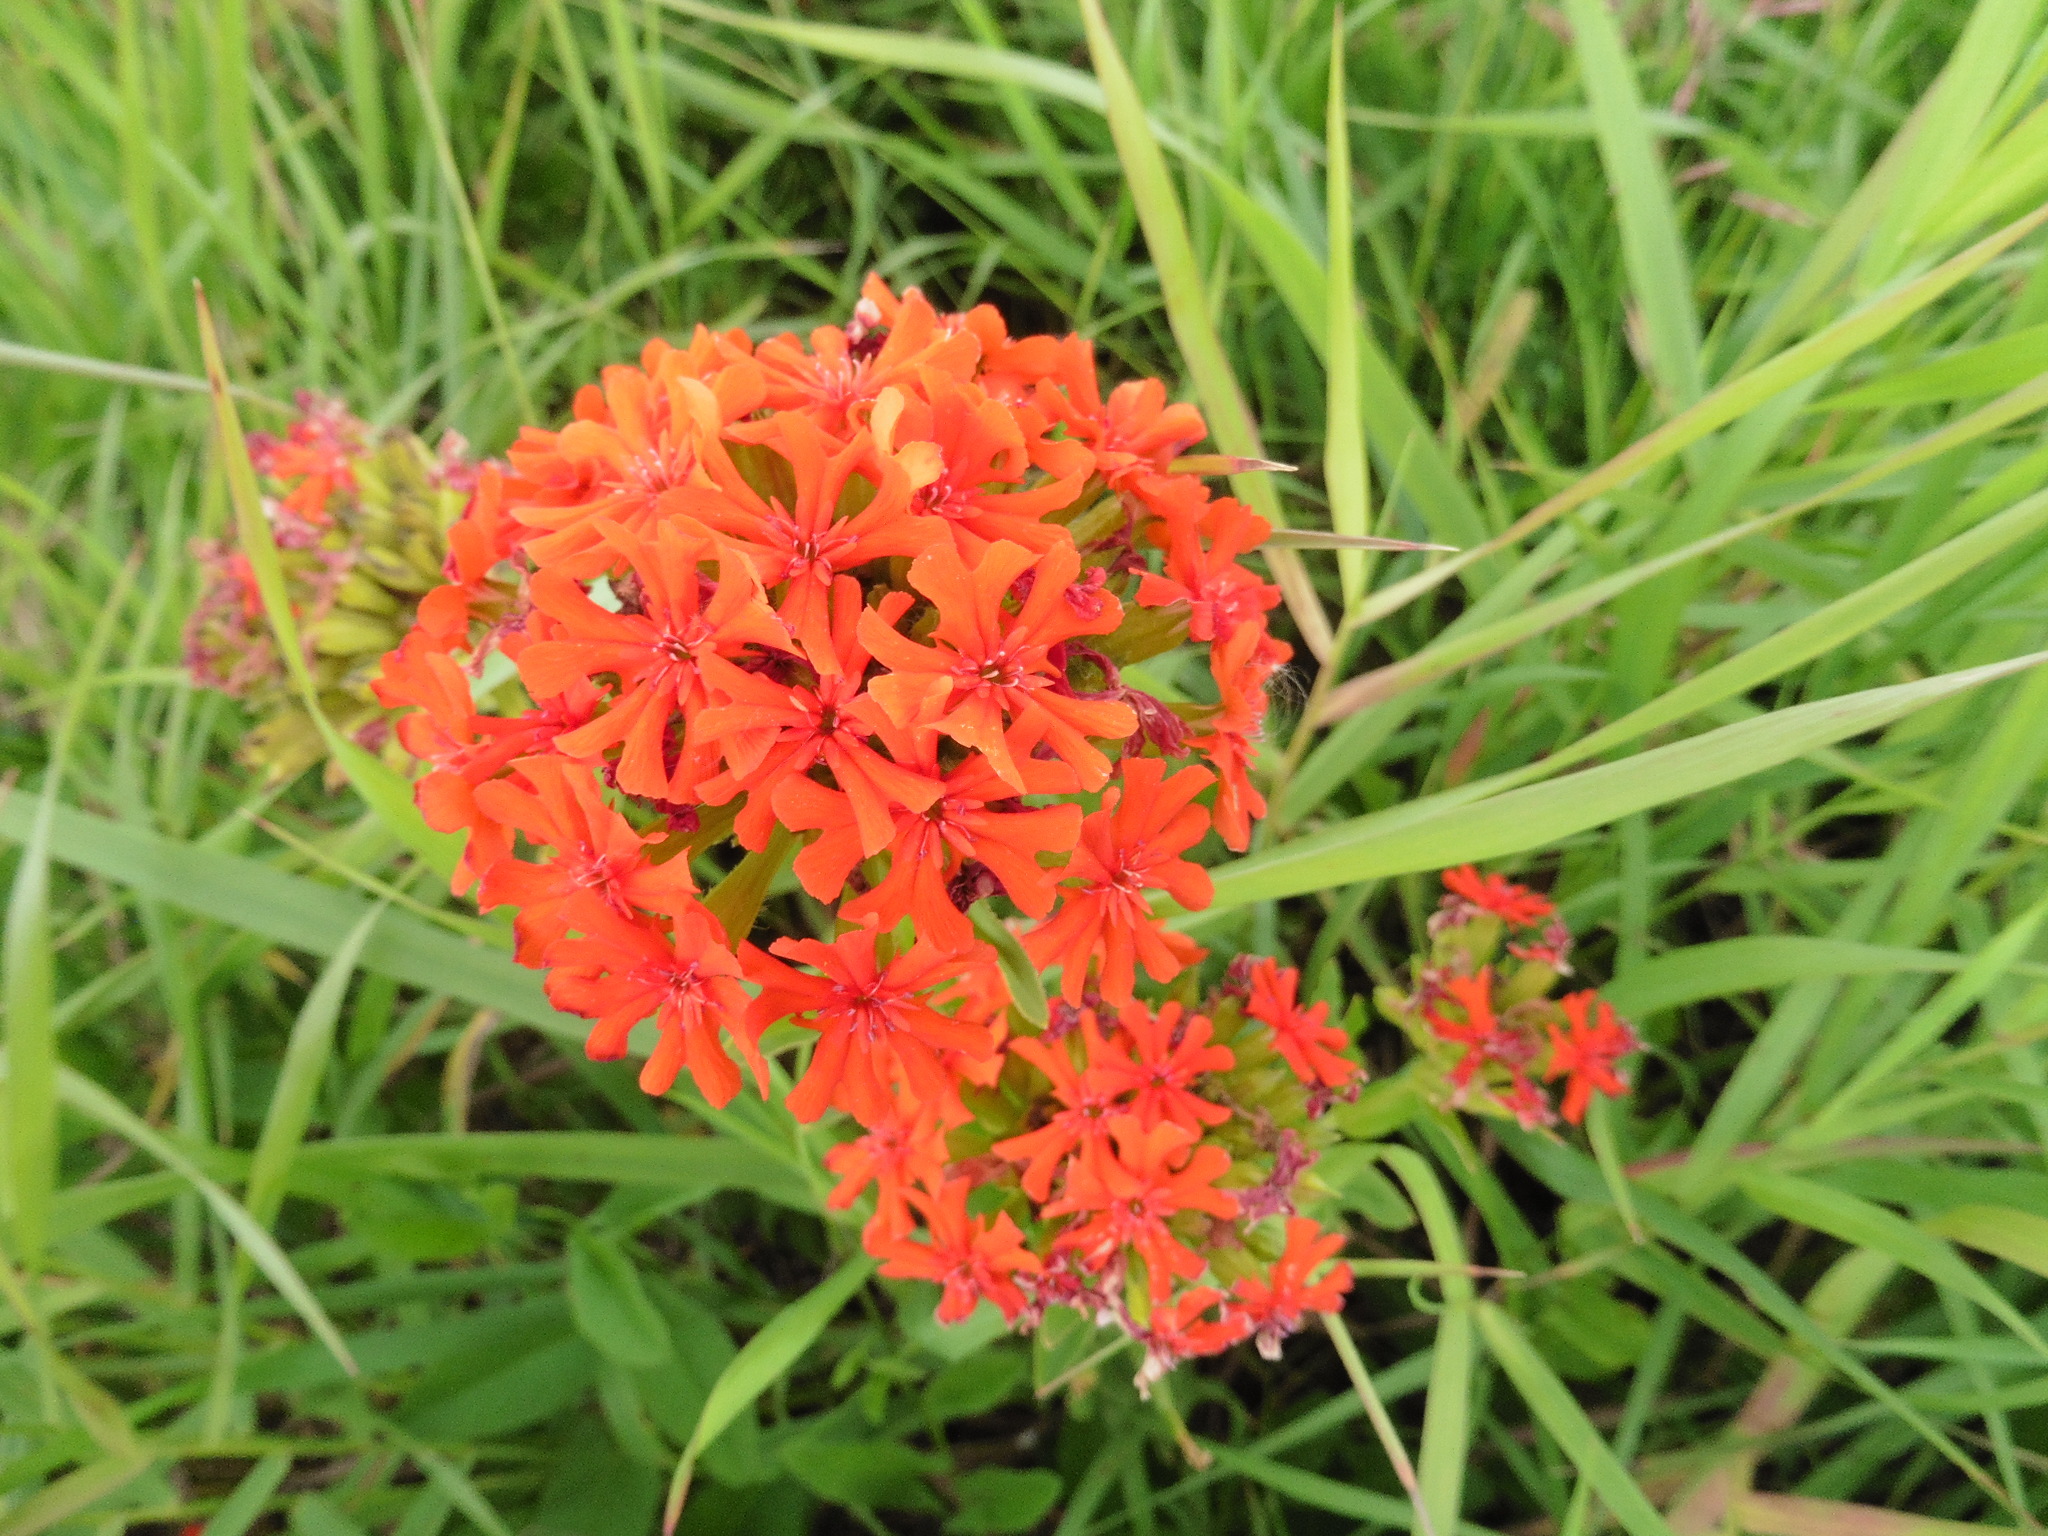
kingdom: Plantae
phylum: Tracheophyta
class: Magnoliopsida
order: Caryophyllales
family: Caryophyllaceae
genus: Silene
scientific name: Silene chalcedonica
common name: Maltese-cross
